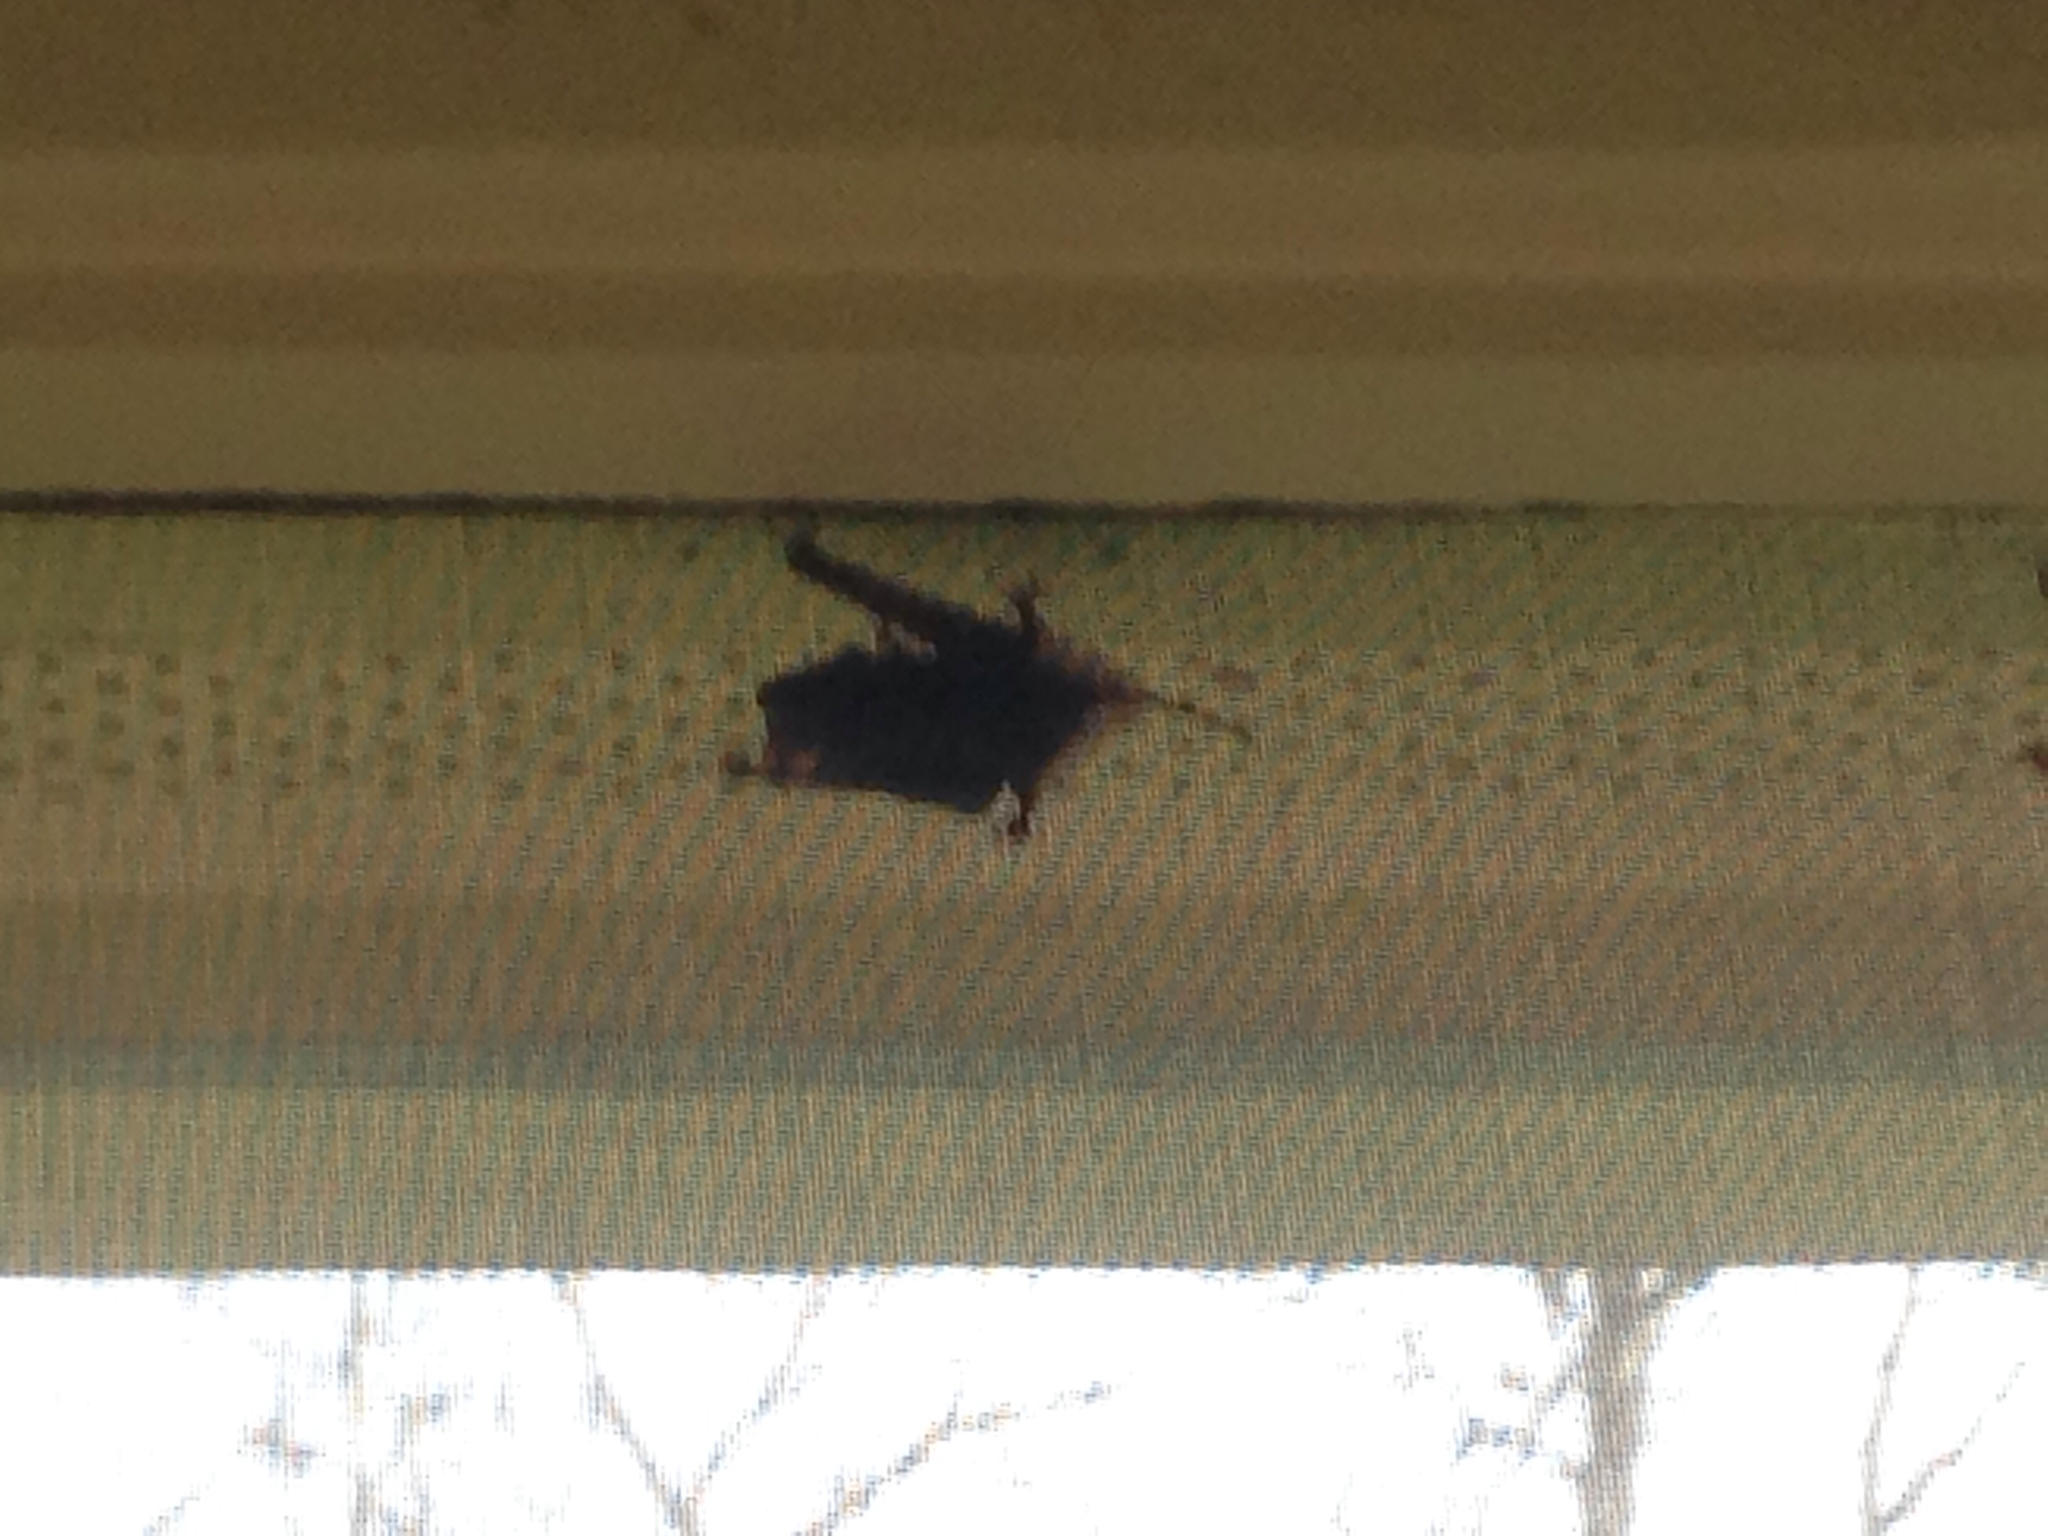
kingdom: Animalia
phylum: Chordata
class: Mammalia
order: Chiroptera
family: Molossidae
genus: Tadarida
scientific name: Tadarida brasiliensis
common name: Mexican free-tailed bat
